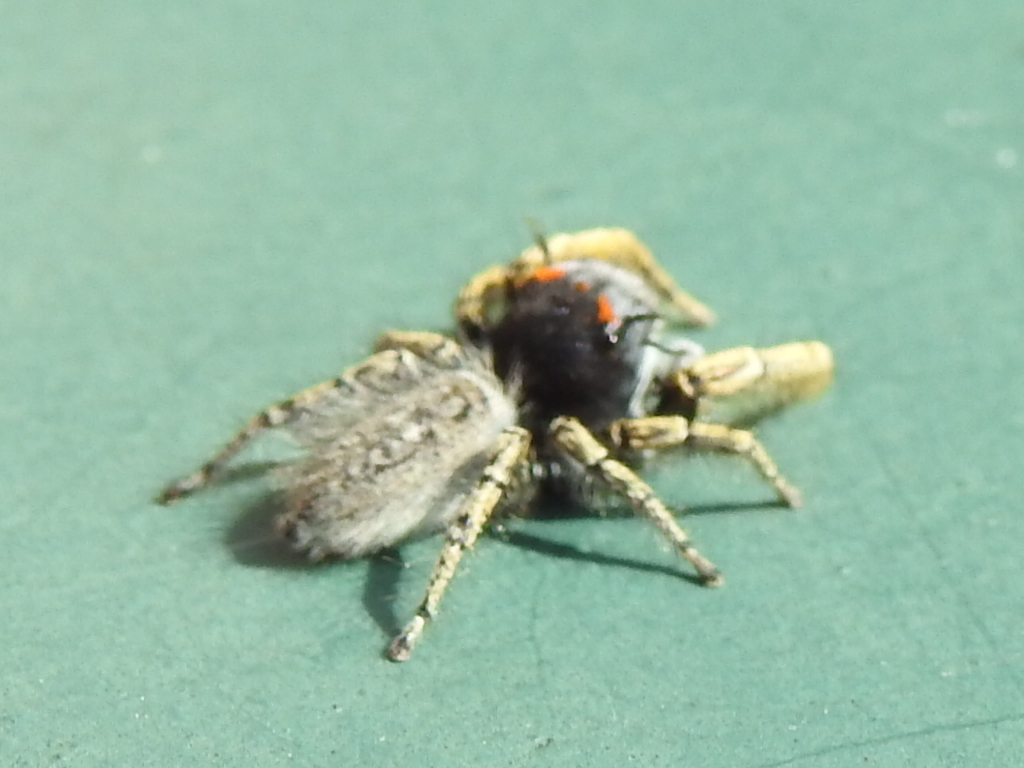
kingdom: Animalia
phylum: Arthropoda
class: Arachnida
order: Araneae
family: Salticidae
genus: Phidippus
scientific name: Phidippus mystaceus
